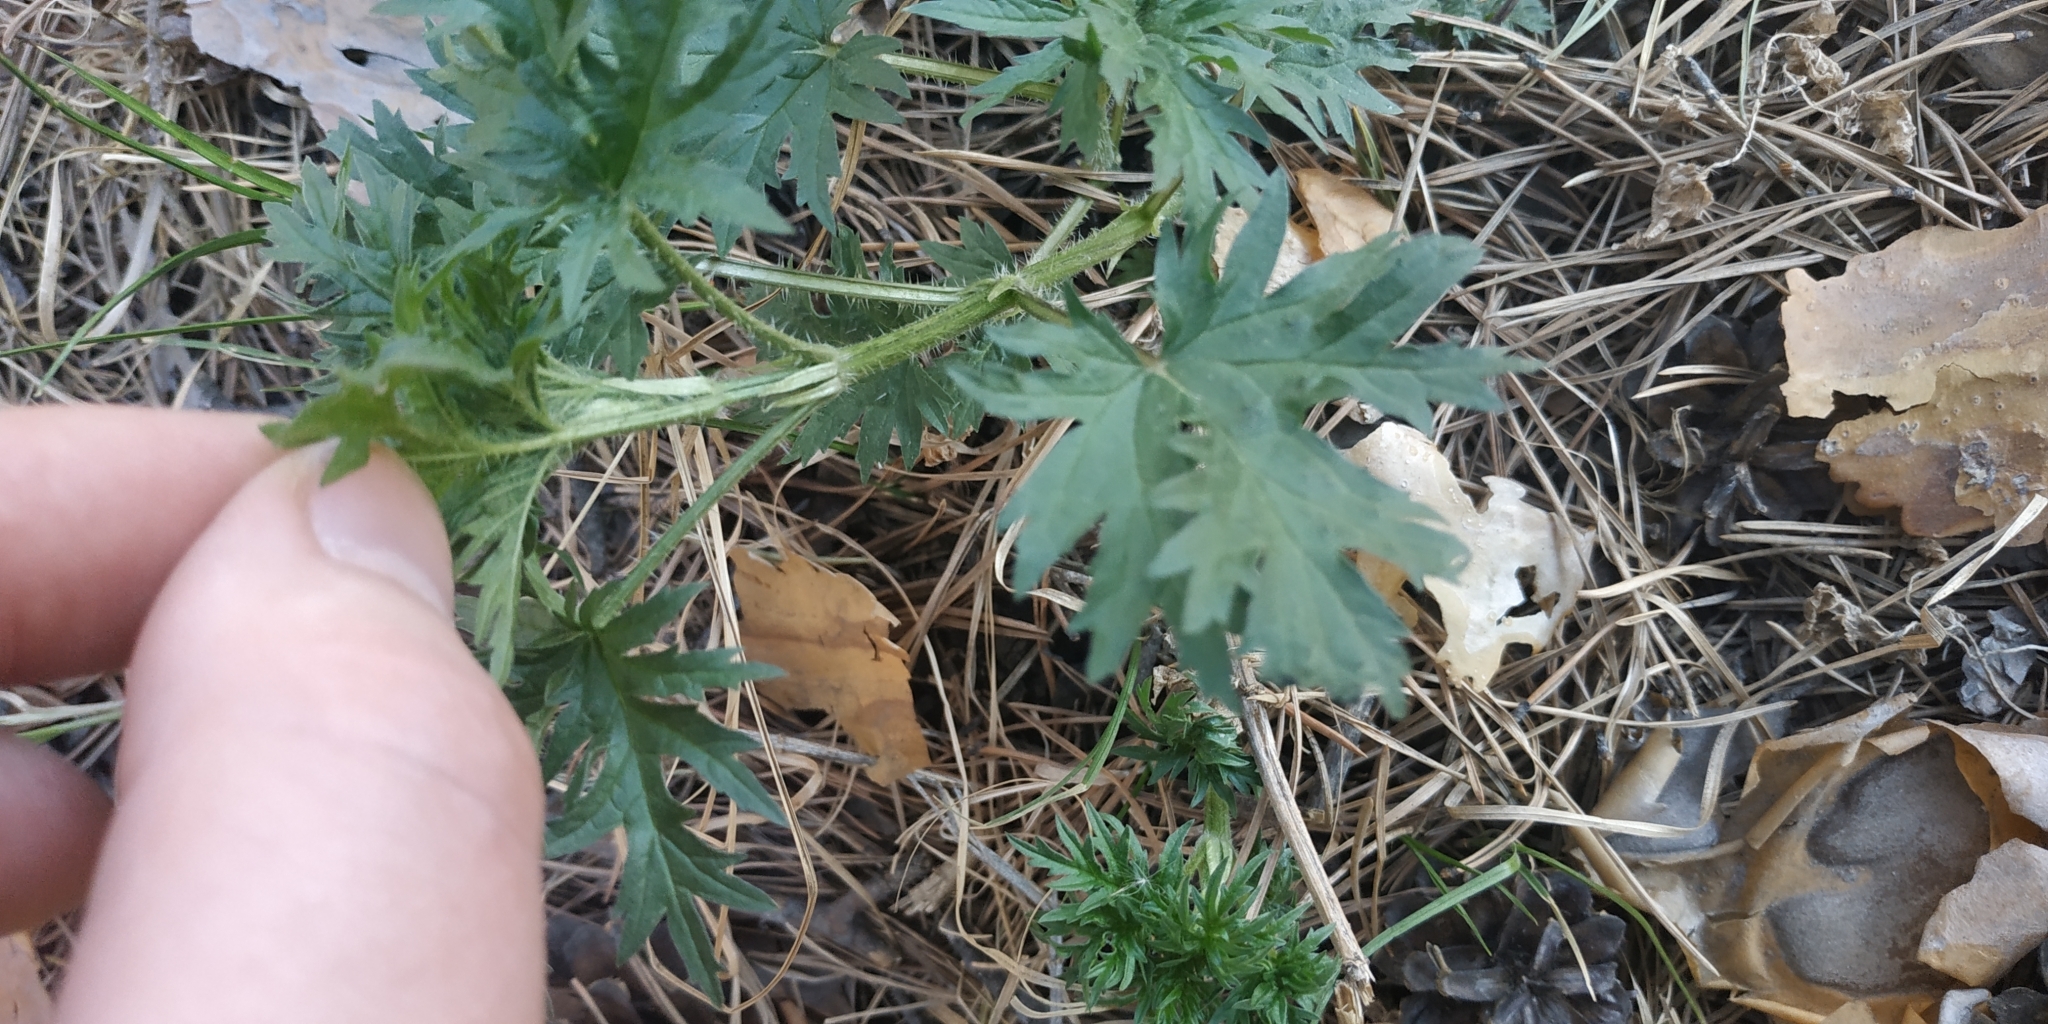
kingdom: Plantae
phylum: Tracheophyta
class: Magnoliopsida
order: Rosales
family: Urticaceae
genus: Urtica
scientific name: Urtica cannabina
